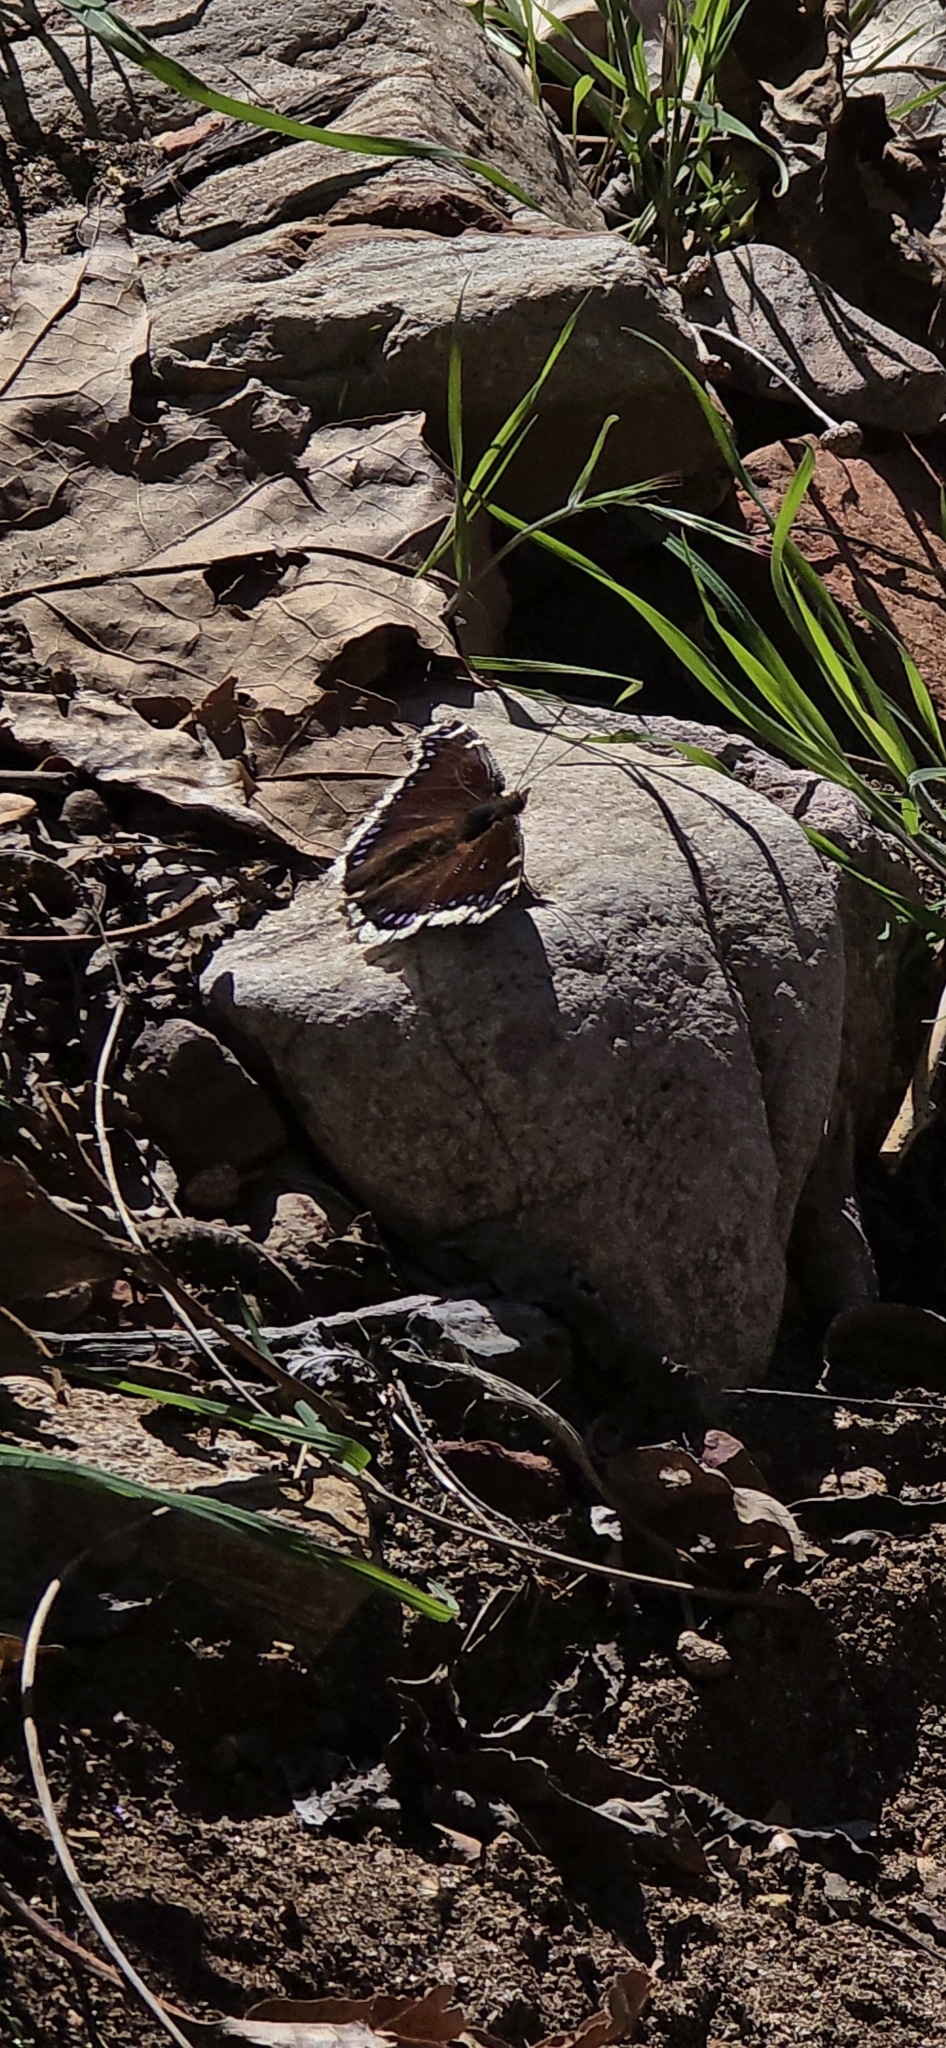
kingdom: Animalia
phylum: Arthropoda
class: Insecta
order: Lepidoptera
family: Nymphalidae
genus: Nymphalis
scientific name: Nymphalis antiopa
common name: Camberwell beauty
